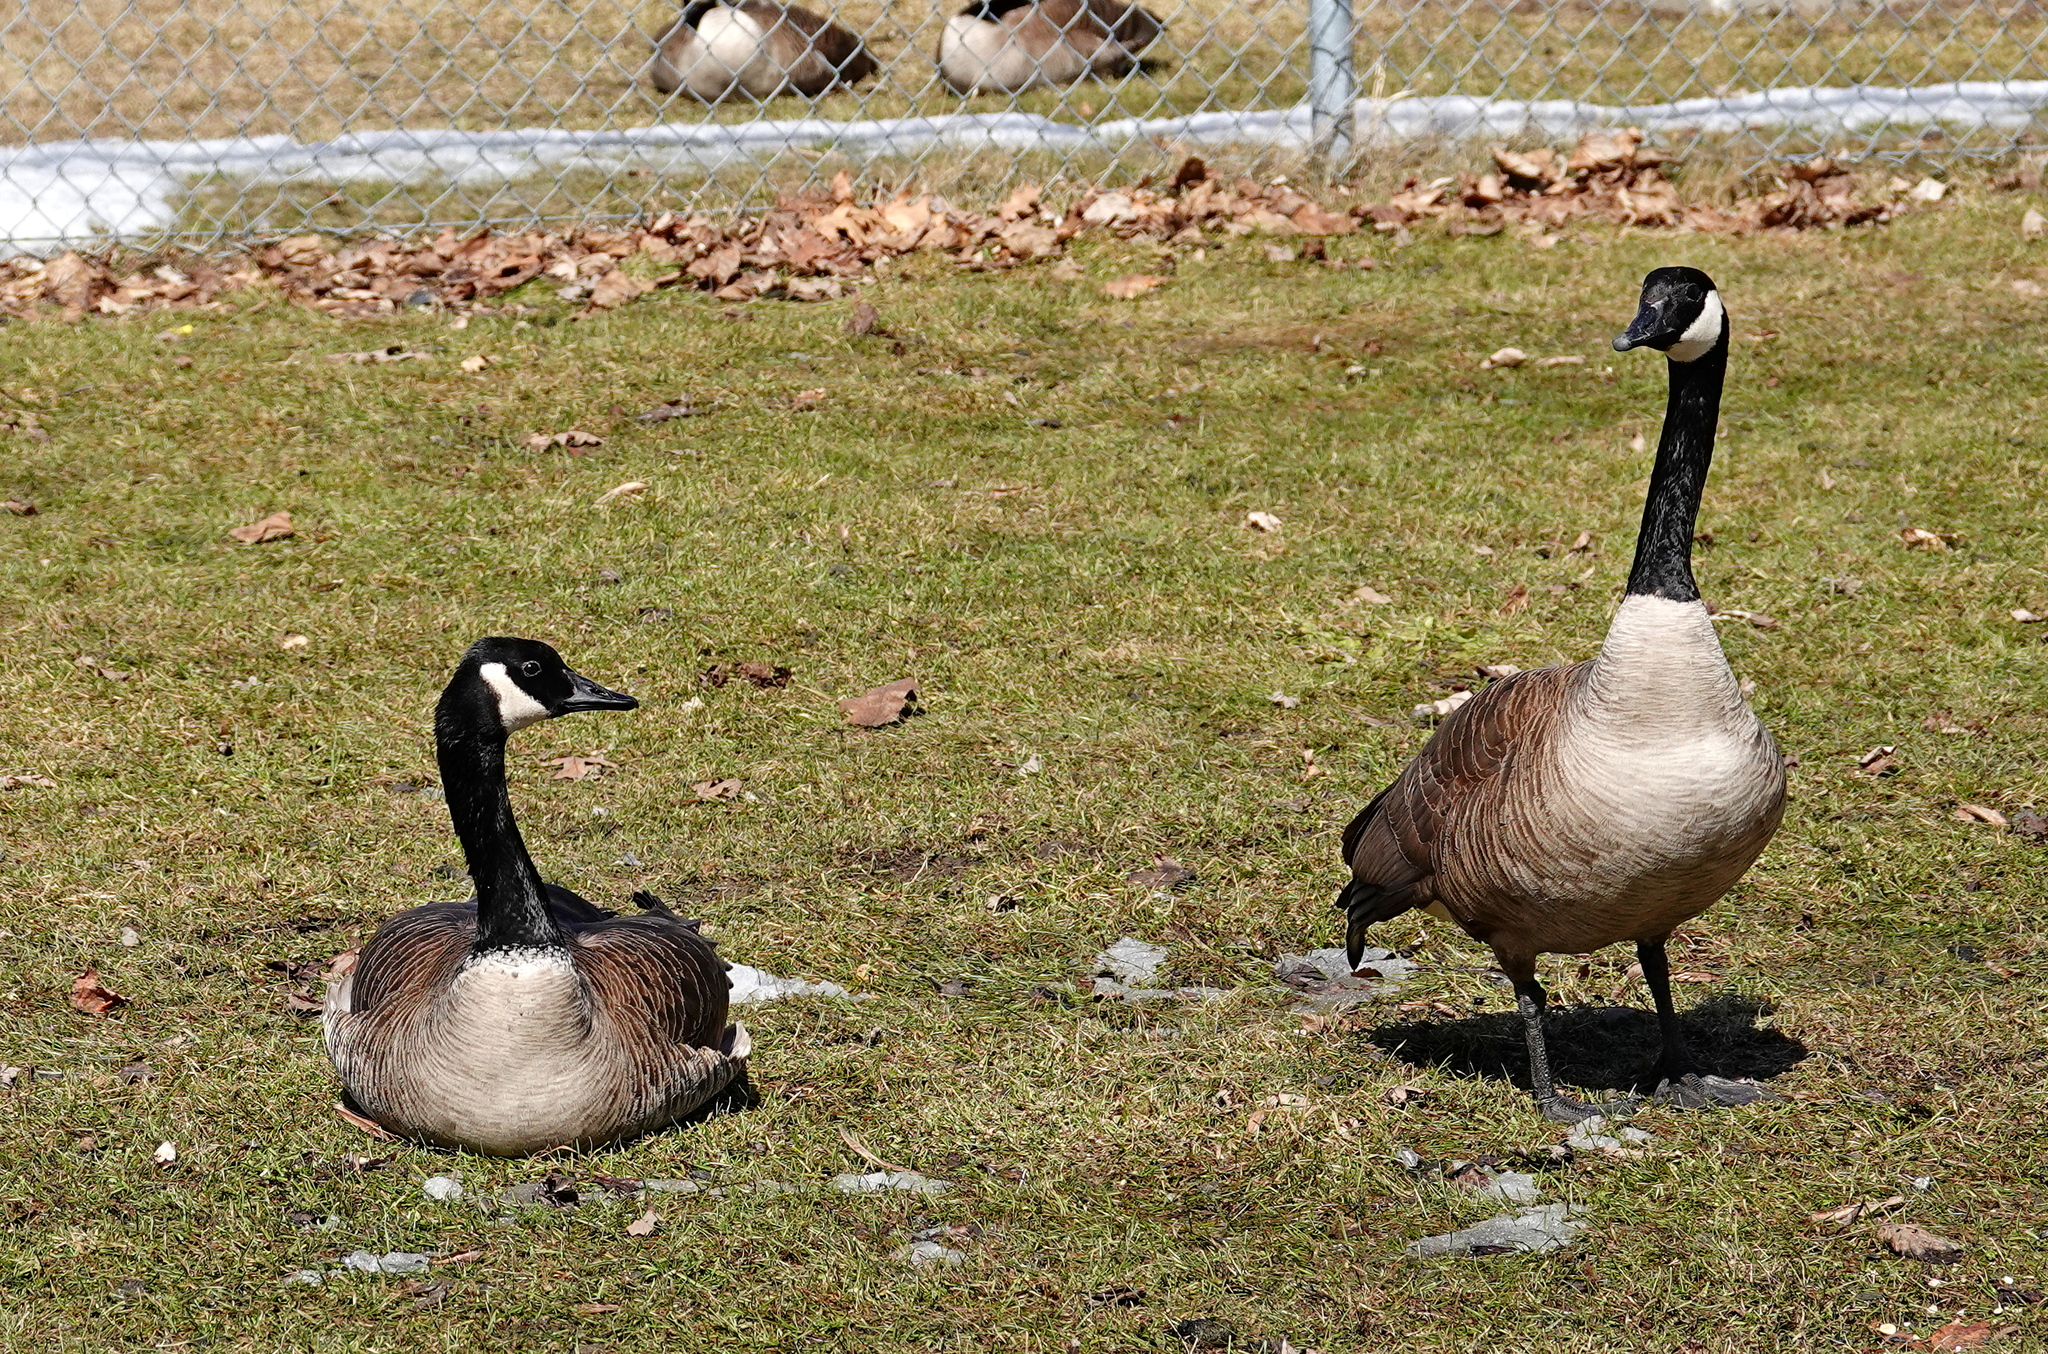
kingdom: Animalia
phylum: Chordata
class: Aves
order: Anseriformes
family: Anatidae
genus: Branta
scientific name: Branta canadensis
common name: Canada goose
